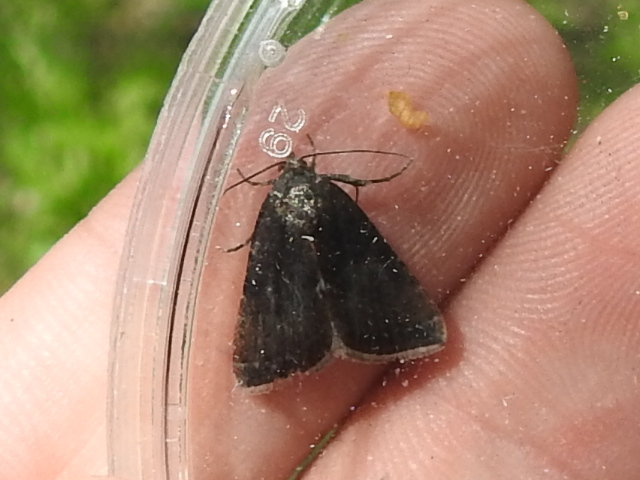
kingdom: Animalia
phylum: Arthropoda
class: Insecta
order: Lepidoptera
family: Noctuidae
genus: Galgula
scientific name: Galgula partita
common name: Wedgeling
